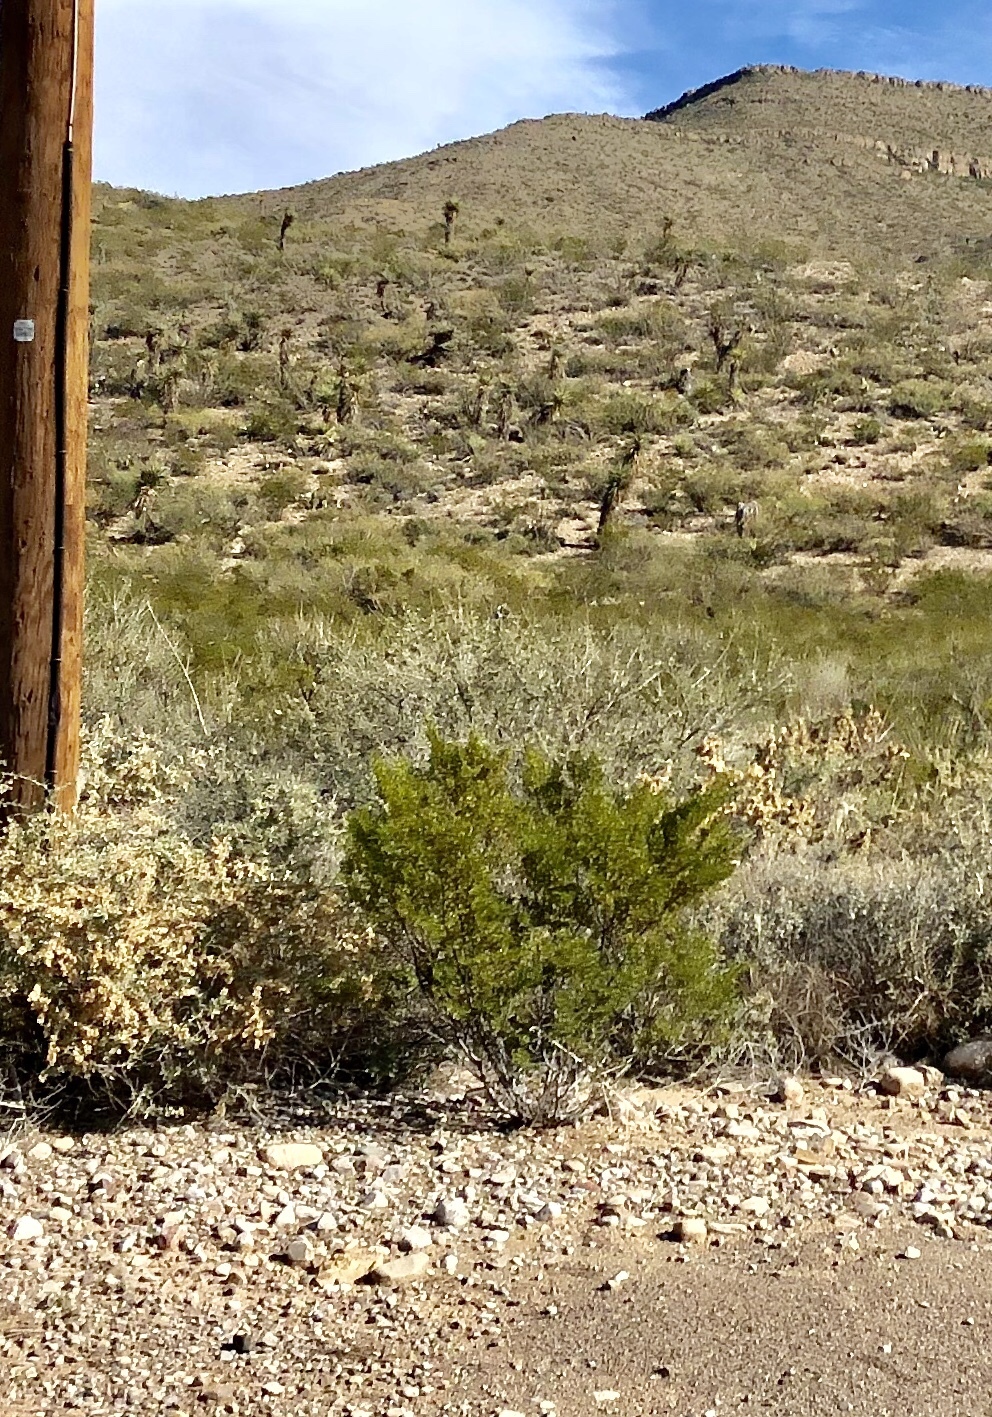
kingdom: Plantae
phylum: Tracheophyta
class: Magnoliopsida
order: Zygophyllales
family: Zygophyllaceae
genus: Larrea
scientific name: Larrea tridentata
